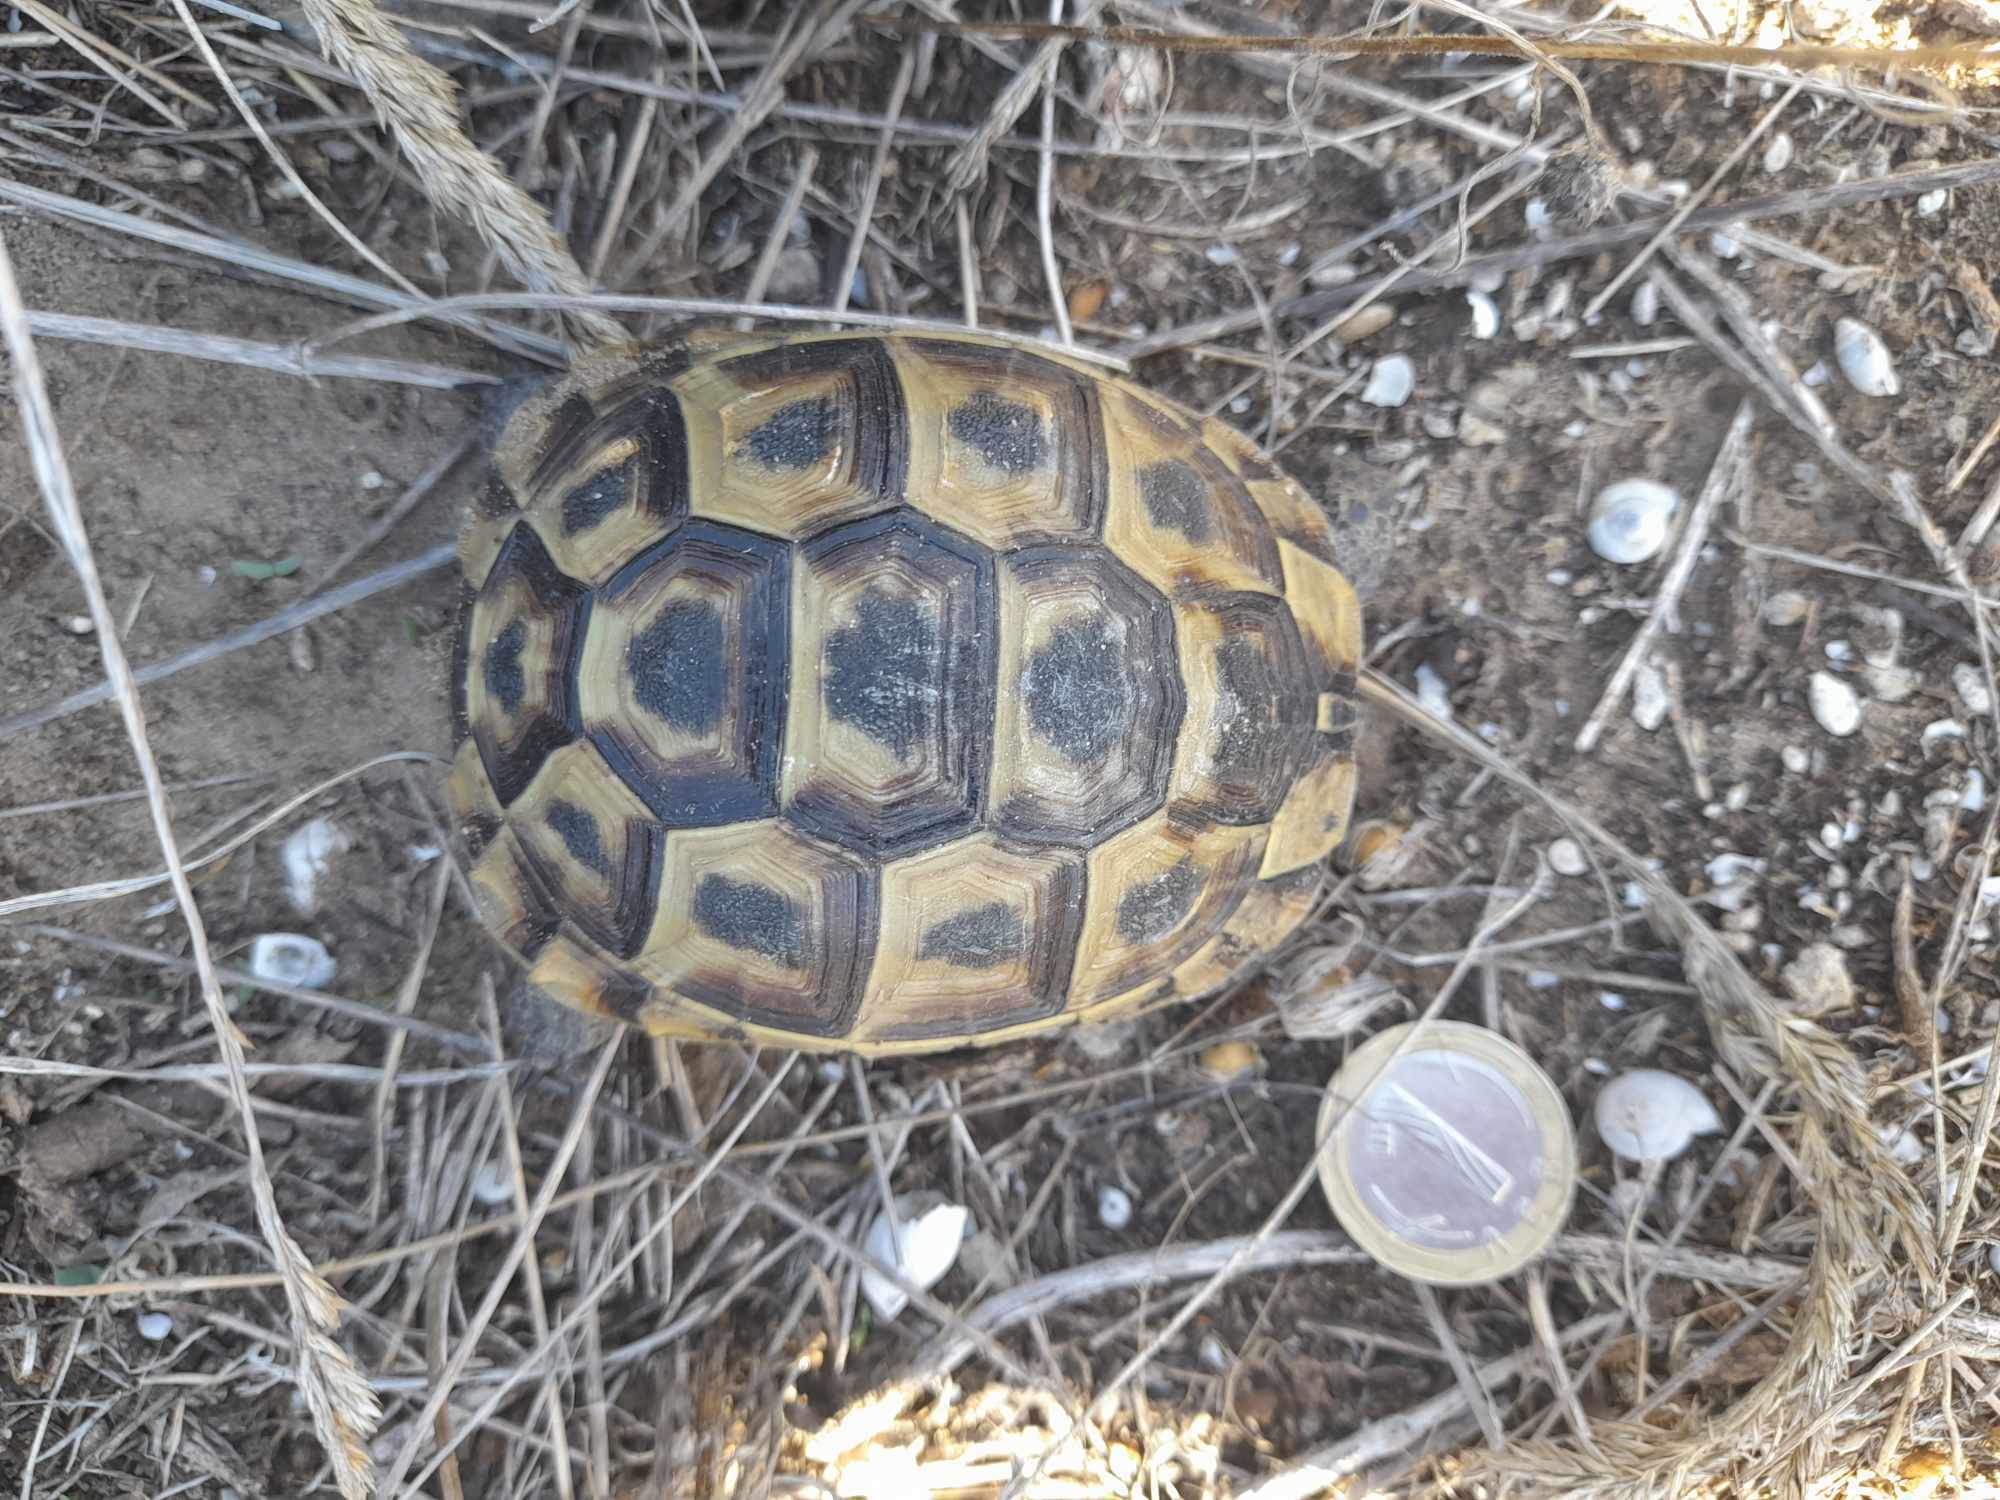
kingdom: Animalia
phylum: Chordata
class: Testudines
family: Testudinidae
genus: Testudo
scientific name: Testudo hermanni
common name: Hermann's tortoise
